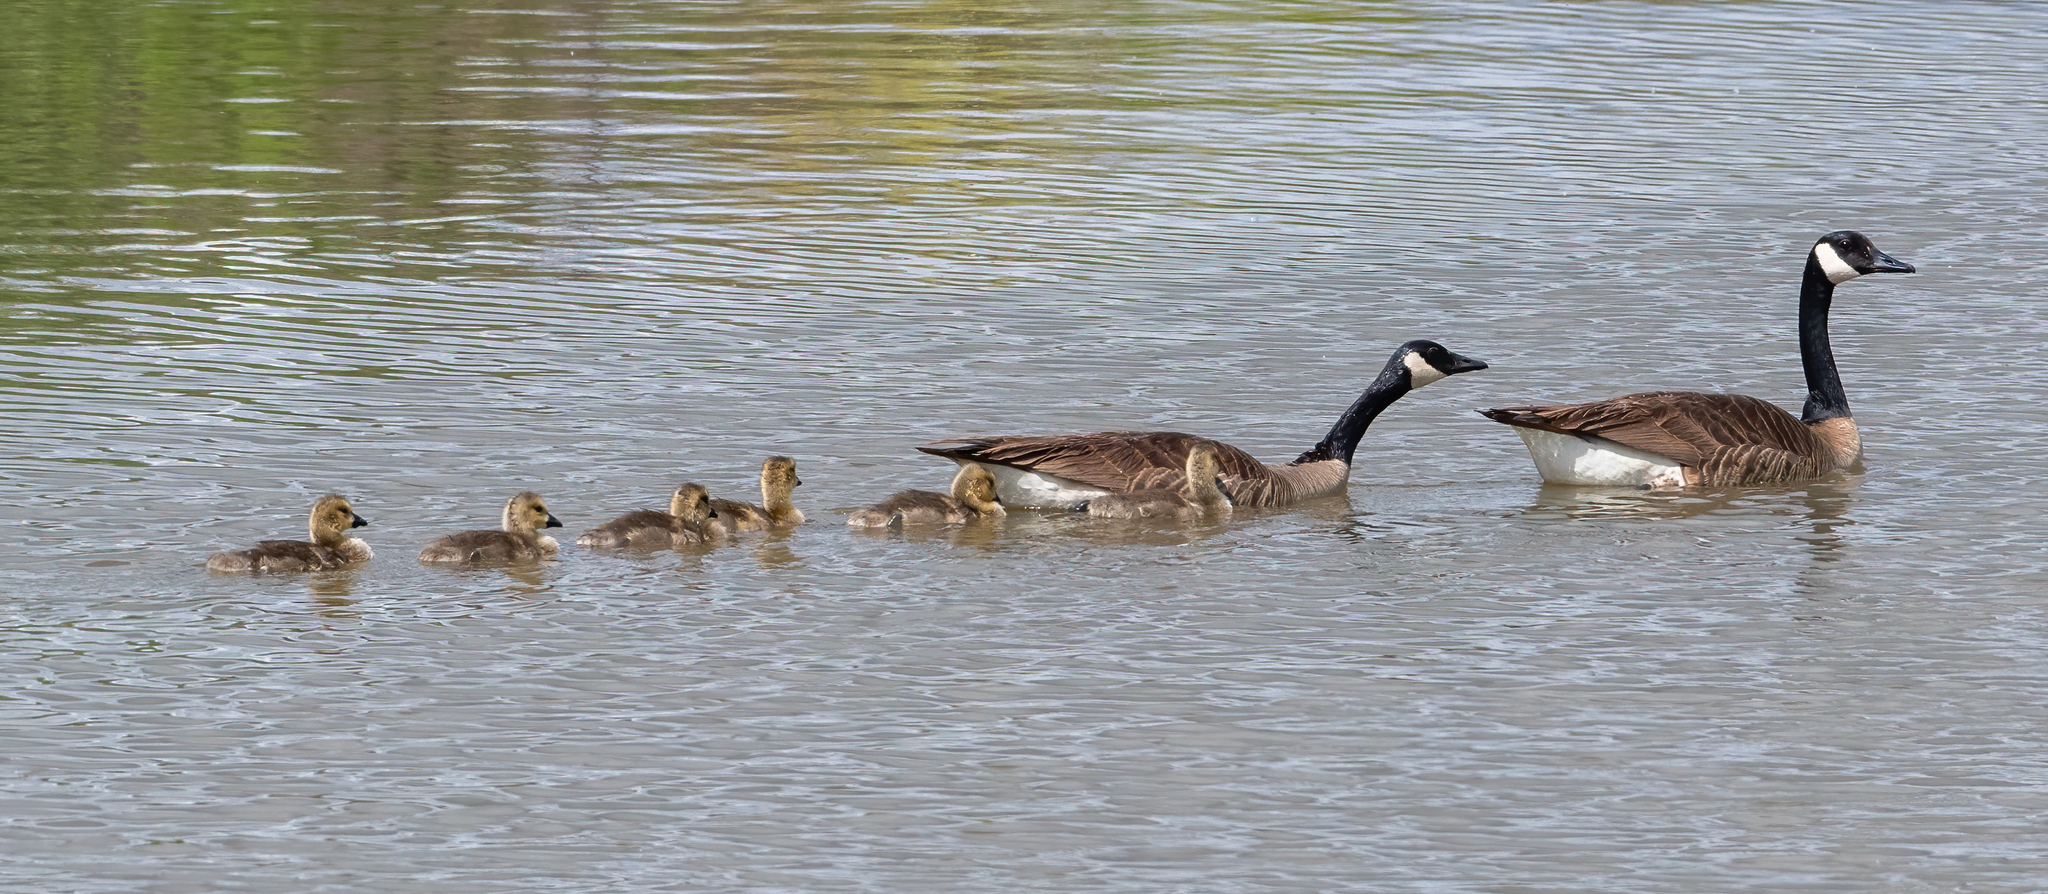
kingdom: Animalia
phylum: Chordata
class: Aves
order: Anseriformes
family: Anatidae
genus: Branta
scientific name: Branta canadensis
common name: Canada goose
